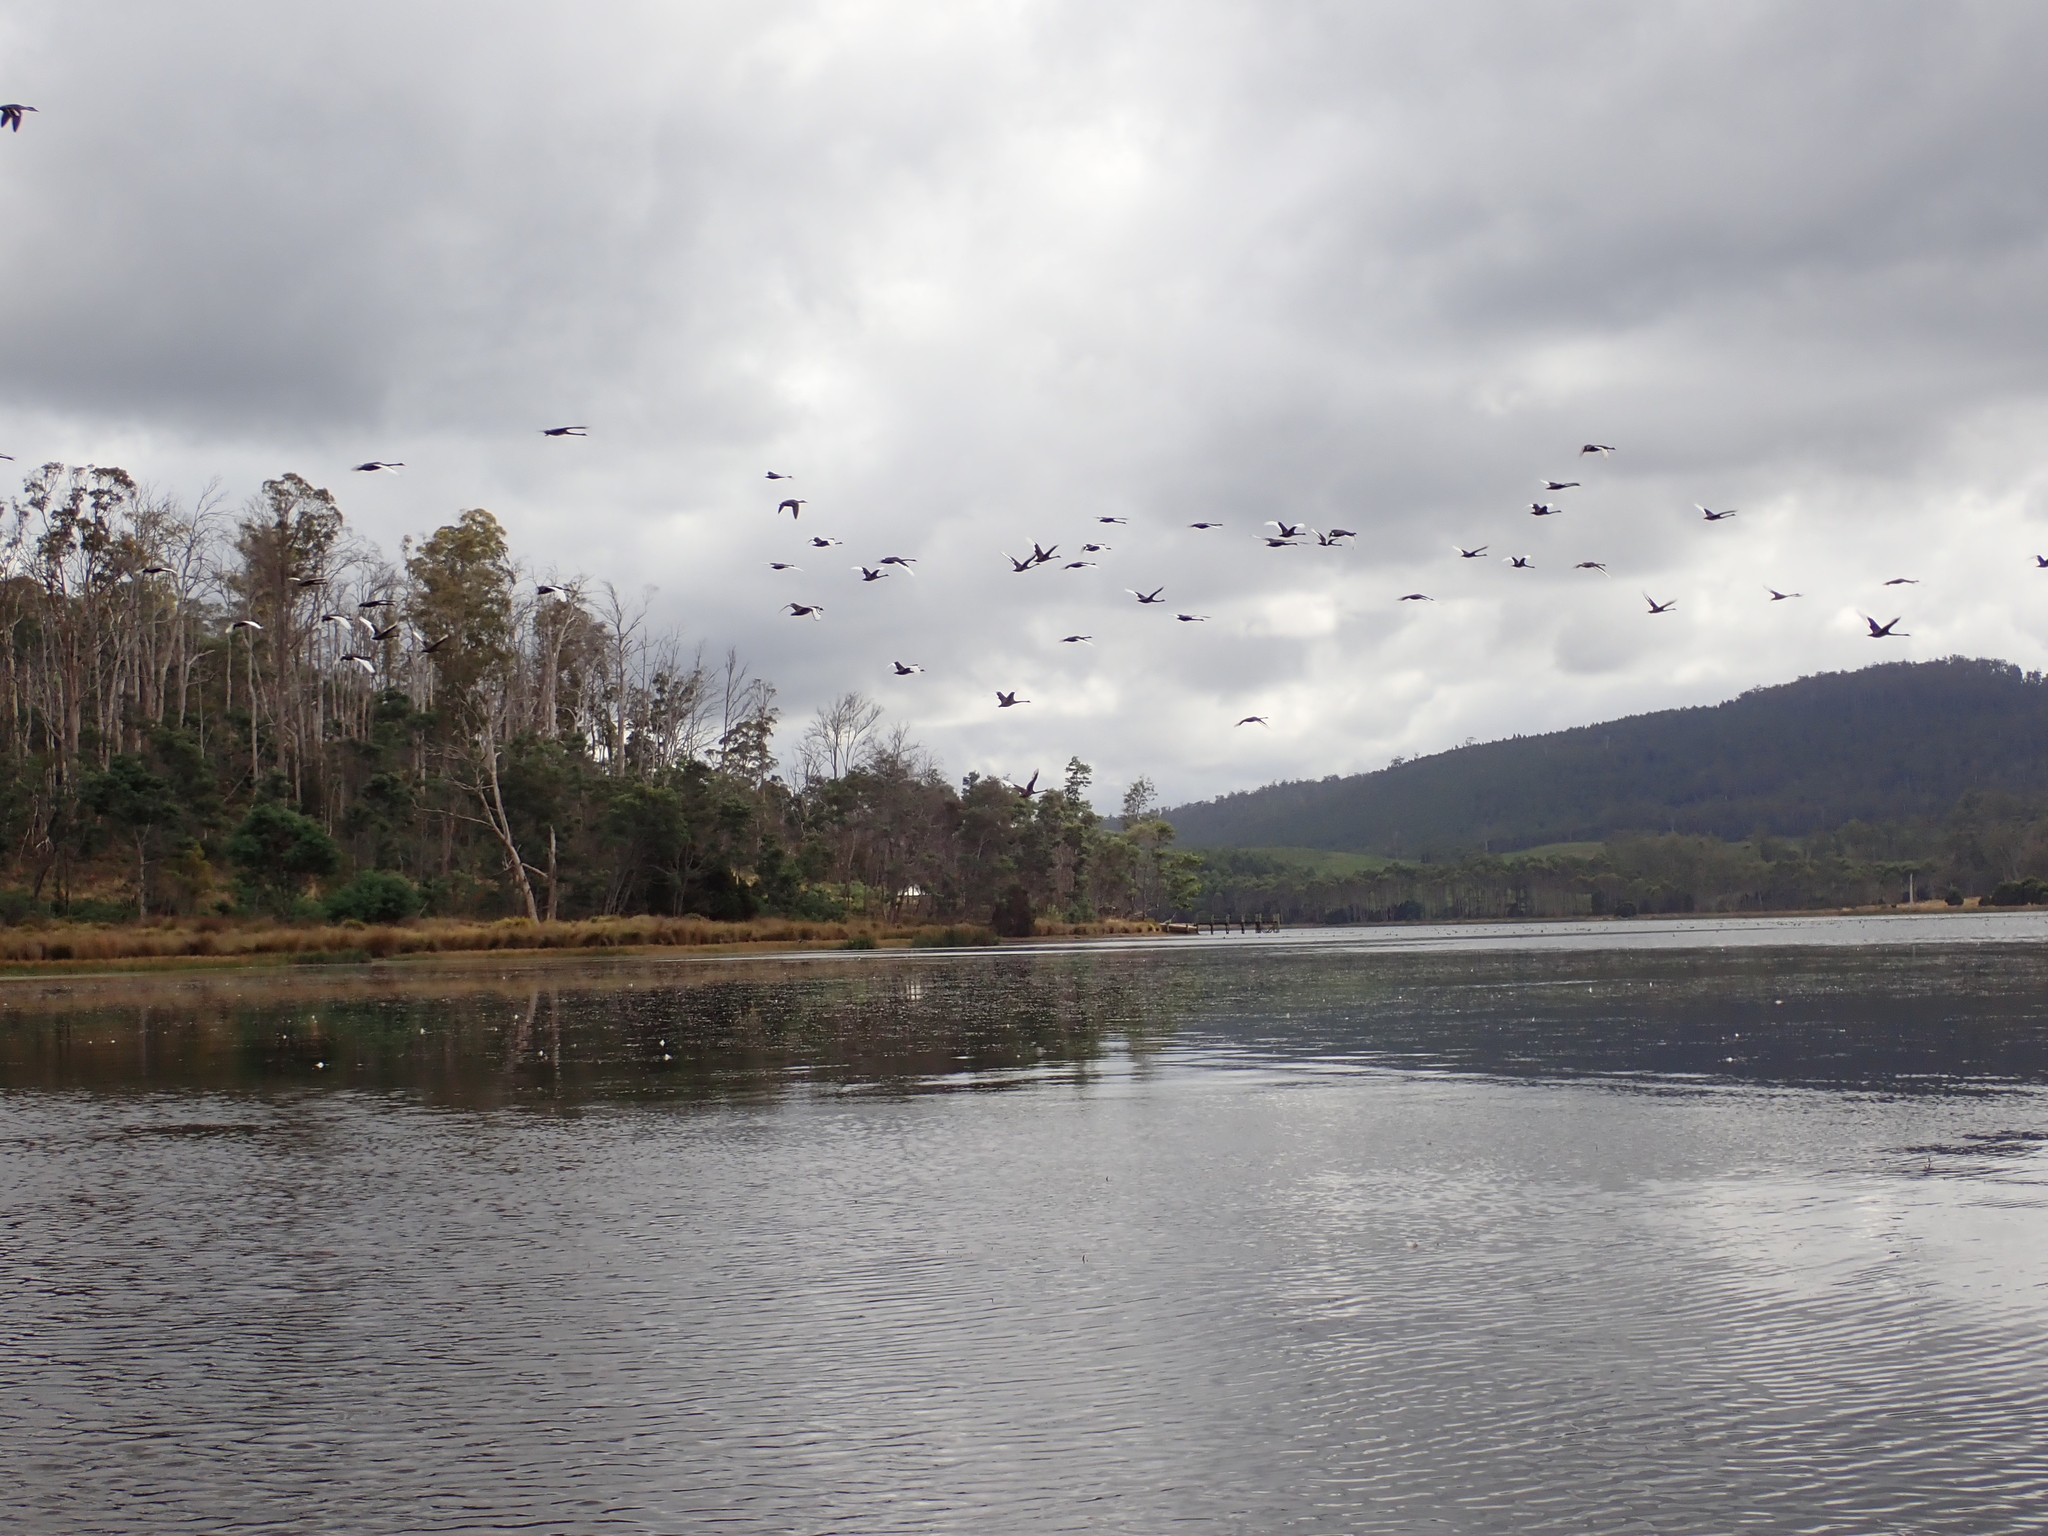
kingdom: Animalia
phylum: Chordata
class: Aves
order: Anseriformes
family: Anatidae
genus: Cygnus
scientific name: Cygnus atratus
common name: Black swan
